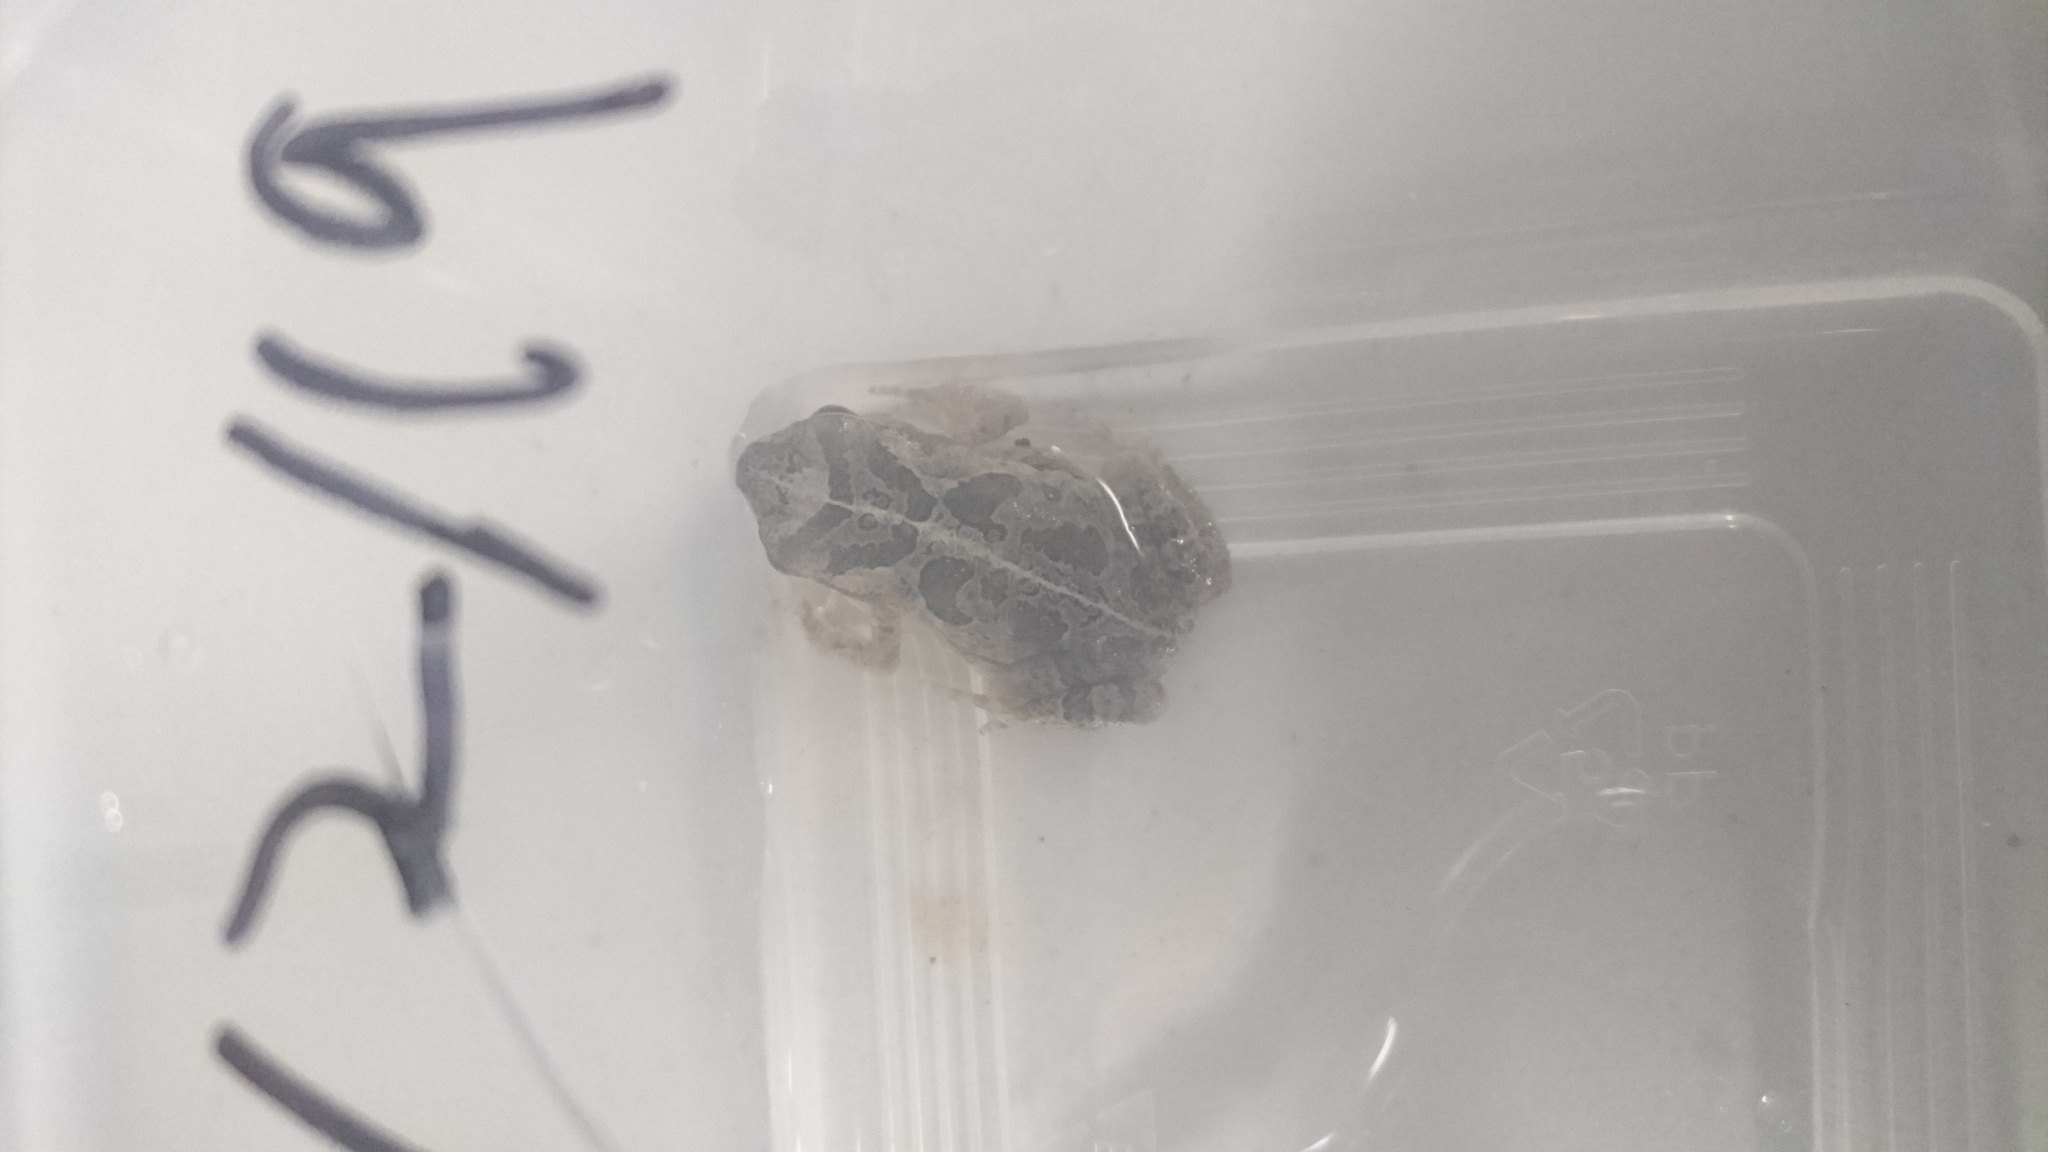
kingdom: Animalia
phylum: Chordata
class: Amphibia
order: Anura
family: Bufonidae
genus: Rhinella
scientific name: Rhinella marina
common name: Cane toad
